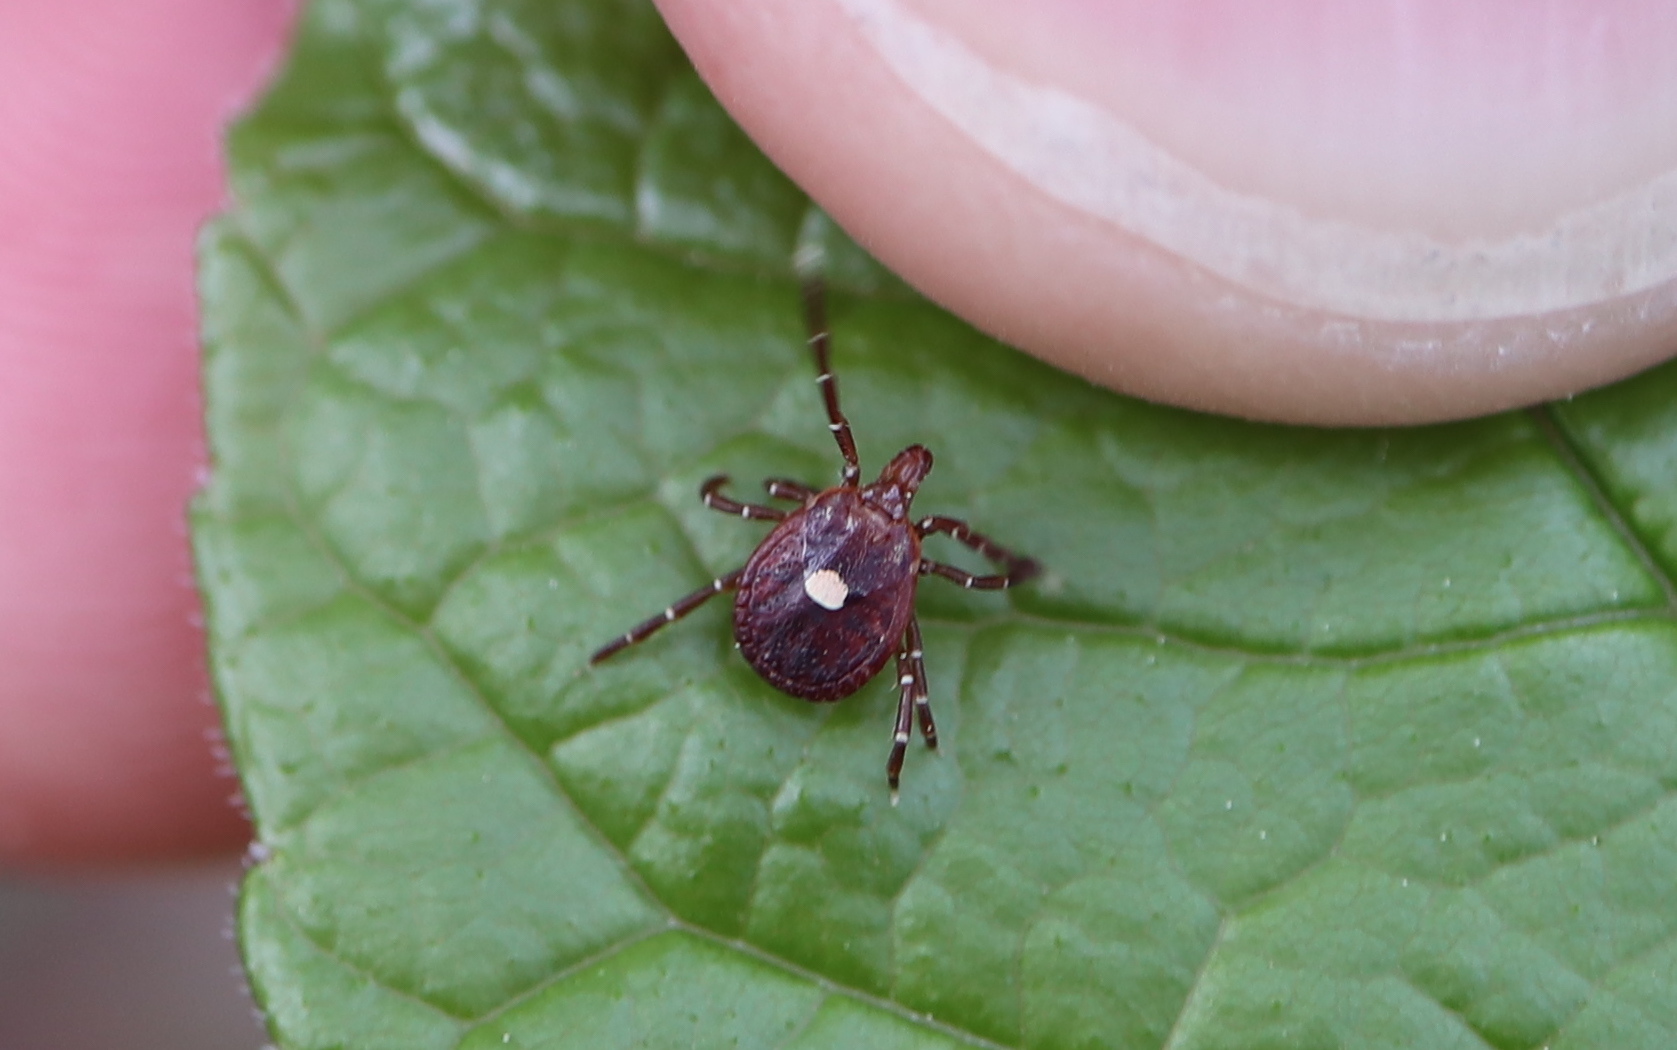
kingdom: Animalia
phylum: Arthropoda
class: Arachnida
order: Ixodida
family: Ixodidae
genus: Amblyomma
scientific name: Amblyomma americanum
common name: Lone star tick
